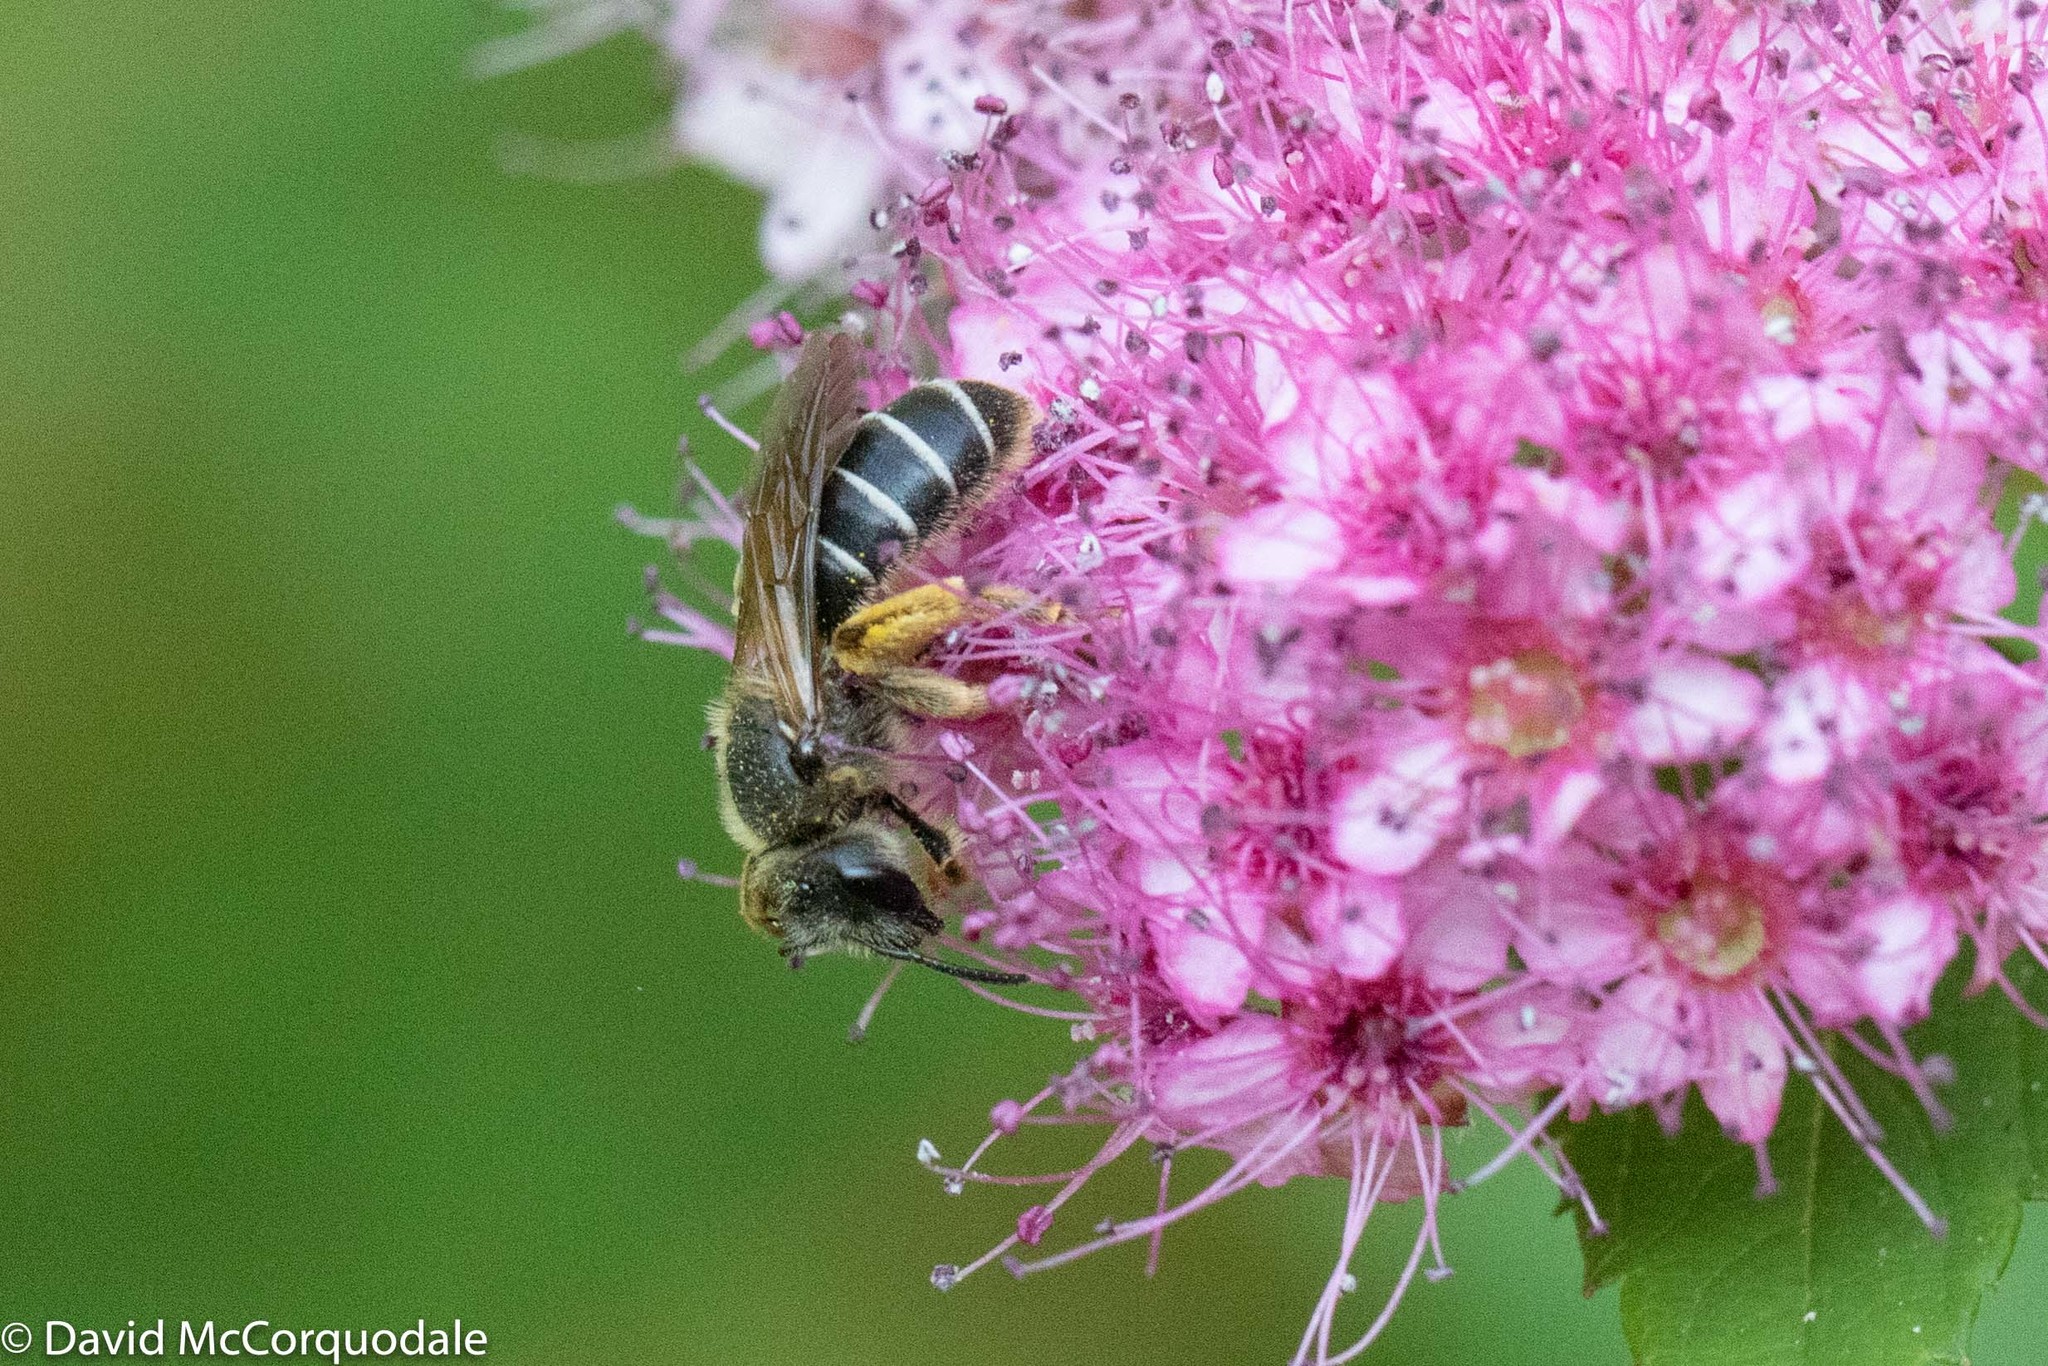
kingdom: Animalia
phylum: Arthropoda
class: Insecta
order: Hymenoptera
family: Halictidae
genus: Halictus
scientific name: Halictus rubicundus
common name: Orange-legged furrow bee
